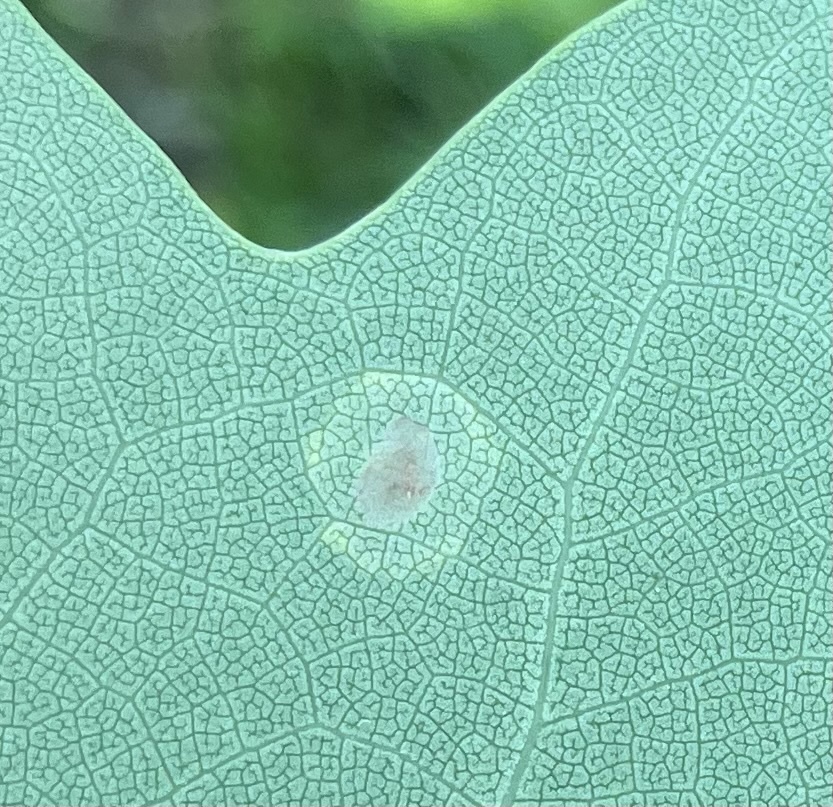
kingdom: Animalia
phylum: Arthropoda
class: Insecta
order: Diptera
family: Cecidomyiidae
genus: Resseliella
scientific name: Resseliella liriodendri
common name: Tulip tree leaf spot gall midge
